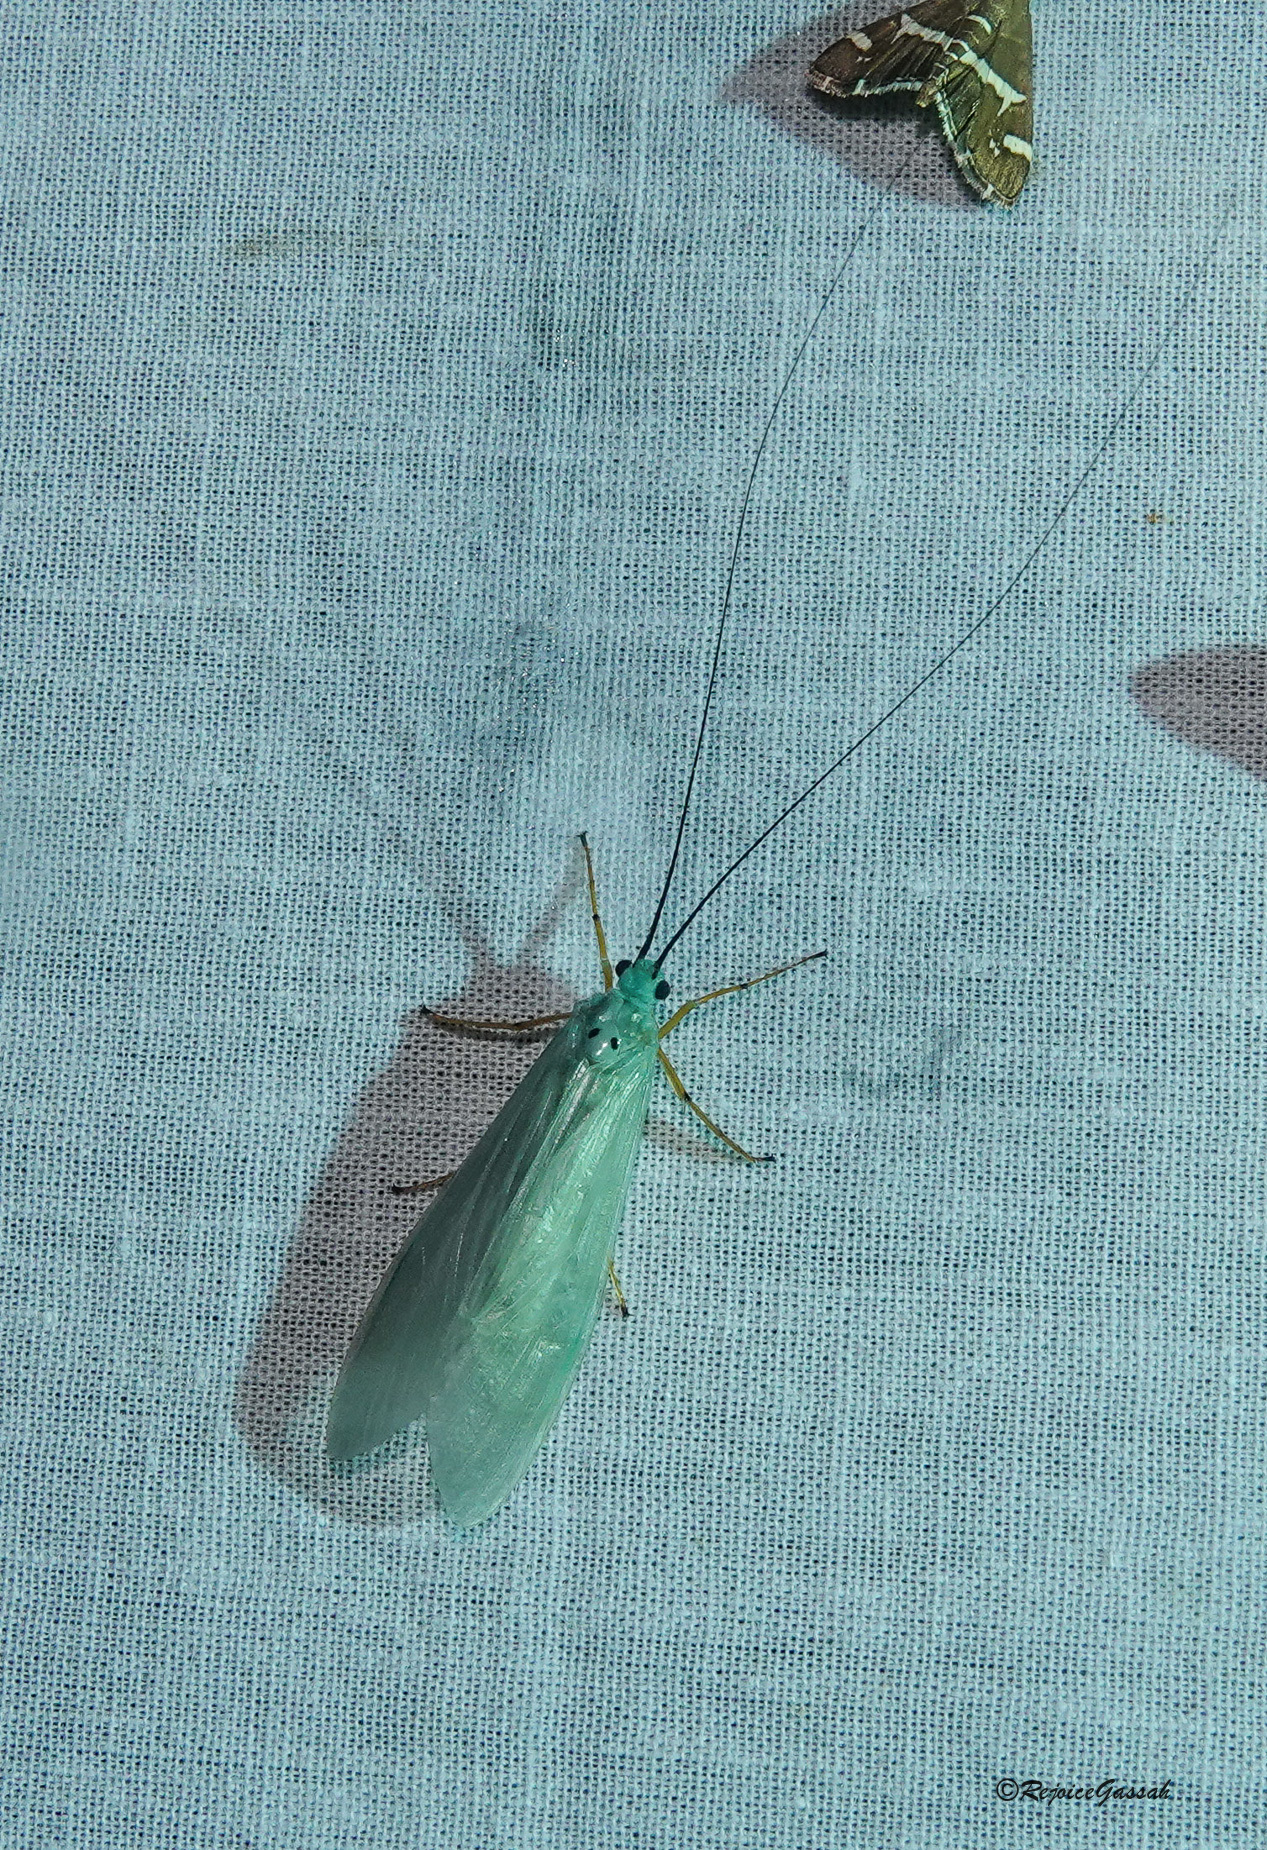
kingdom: Animalia
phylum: Arthropoda
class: Insecta
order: Trichoptera
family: Hydropsychidae
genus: Polymorphanisus
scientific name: Polymorphanisus nigricornis
